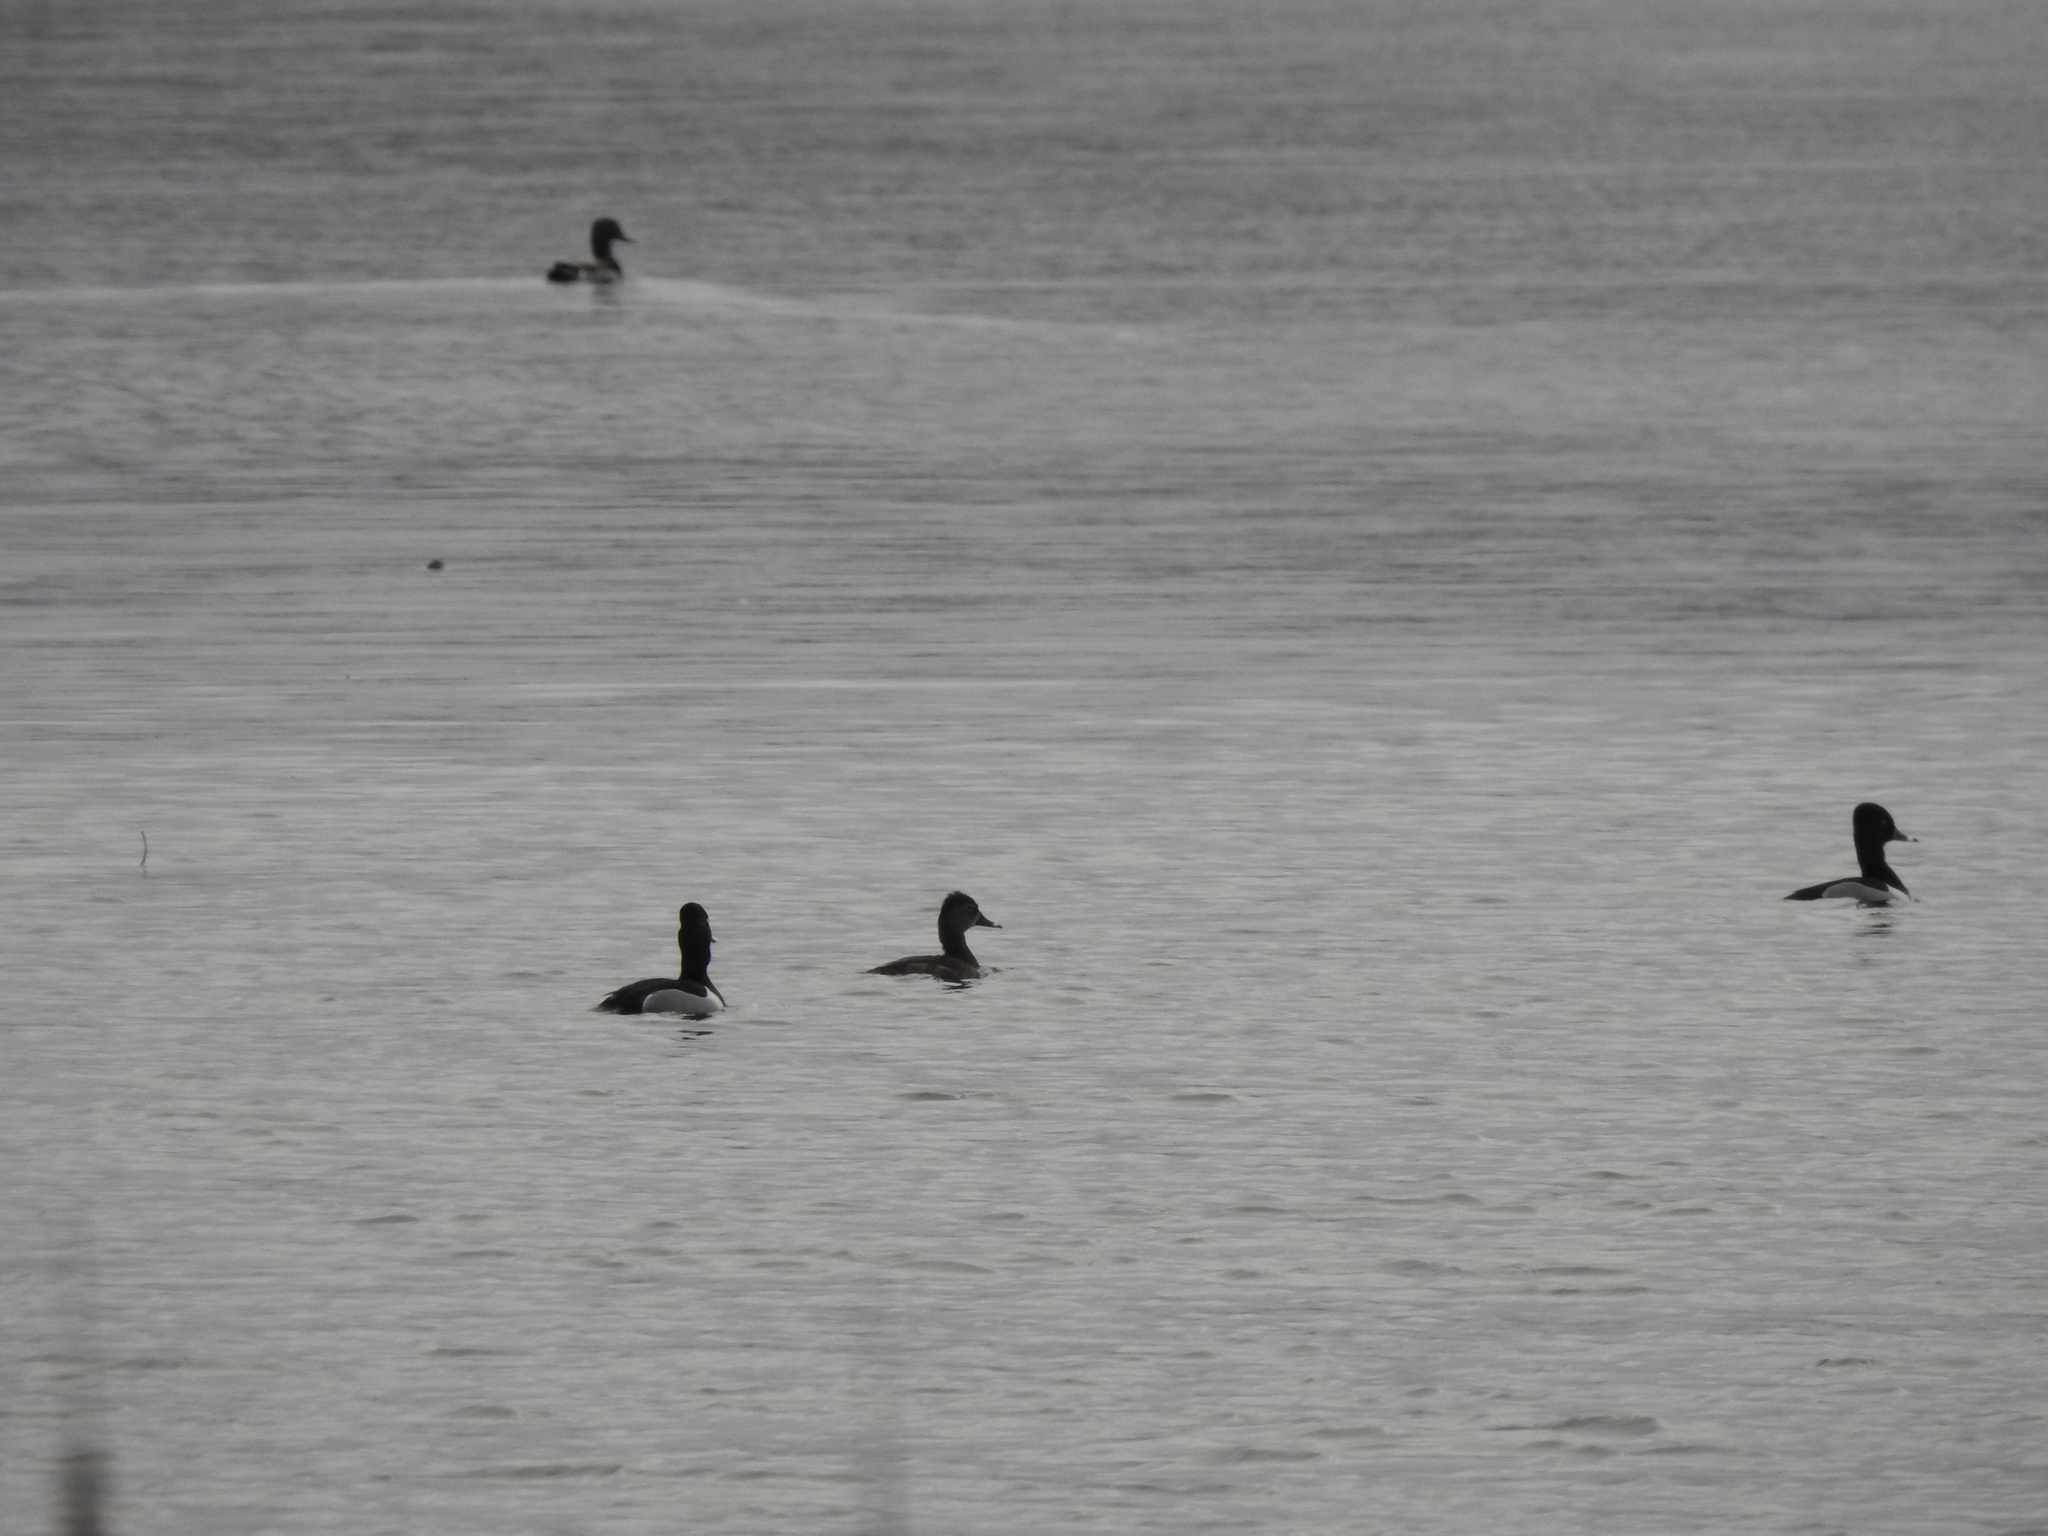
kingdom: Animalia
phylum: Chordata
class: Aves
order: Anseriformes
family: Anatidae
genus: Aythya
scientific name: Aythya collaris
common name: Ring-necked duck
